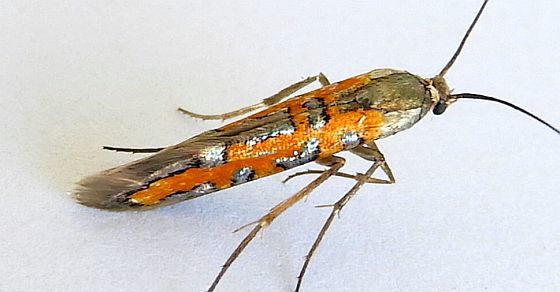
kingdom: Animalia
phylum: Arthropoda
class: Insecta
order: Lepidoptera
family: Heliodinidae
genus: Lamprolophus
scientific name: Lamprolophus
